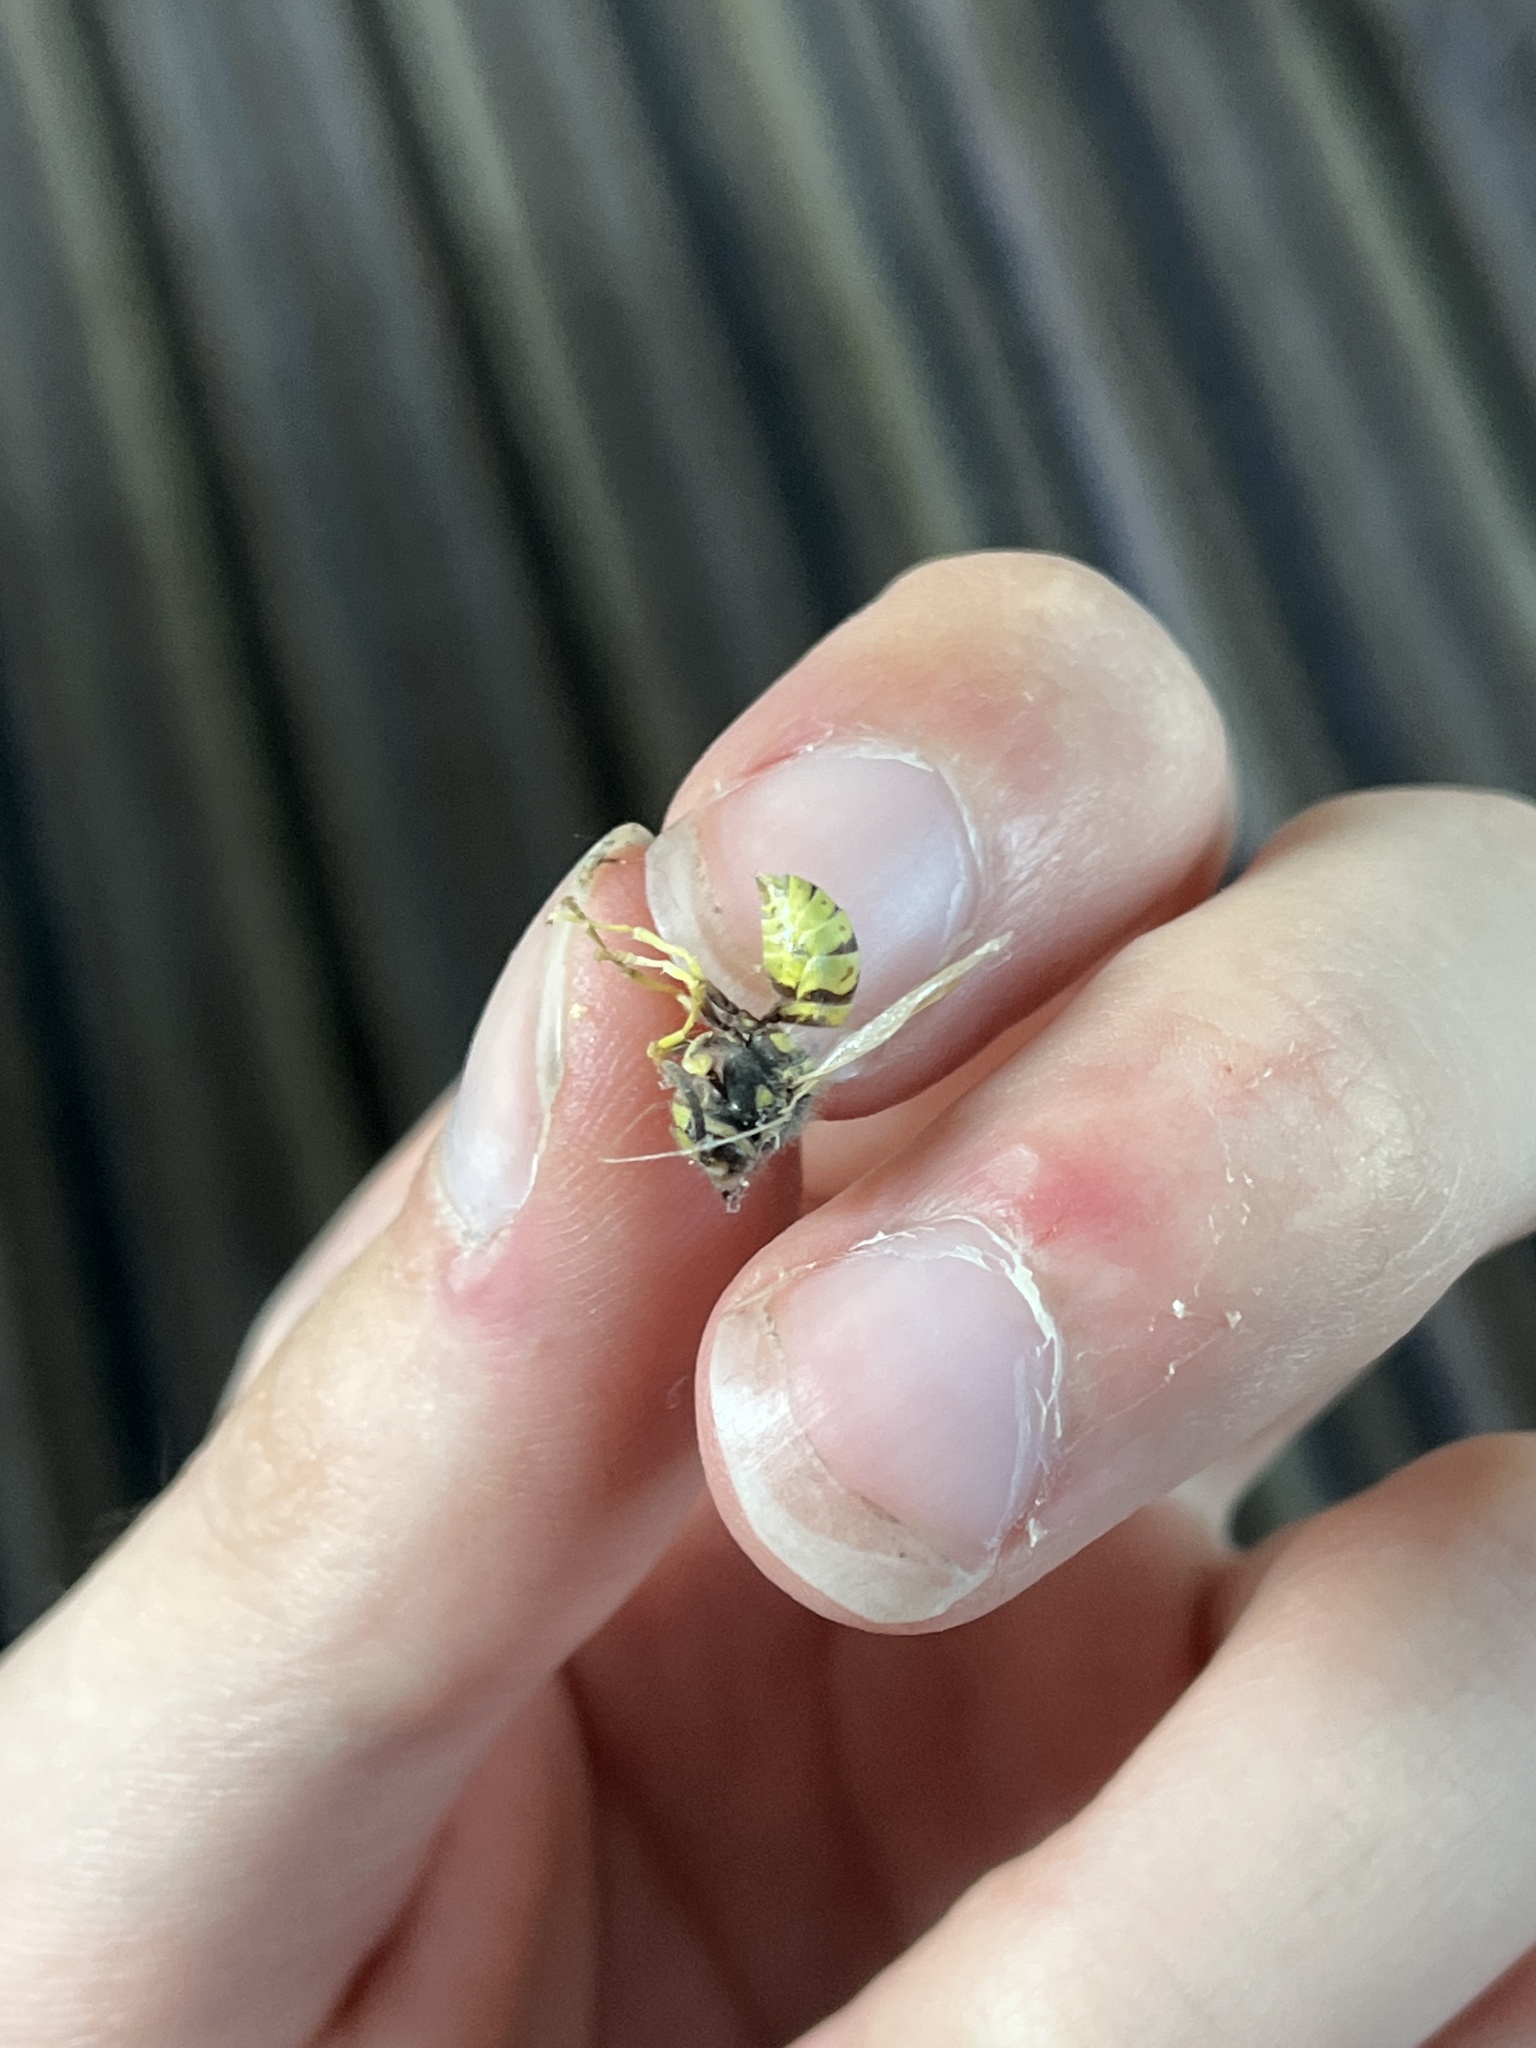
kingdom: Animalia
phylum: Arthropoda
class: Insecta
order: Hymenoptera
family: Vespidae
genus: Vespula
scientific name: Vespula germanica
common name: German wasp
